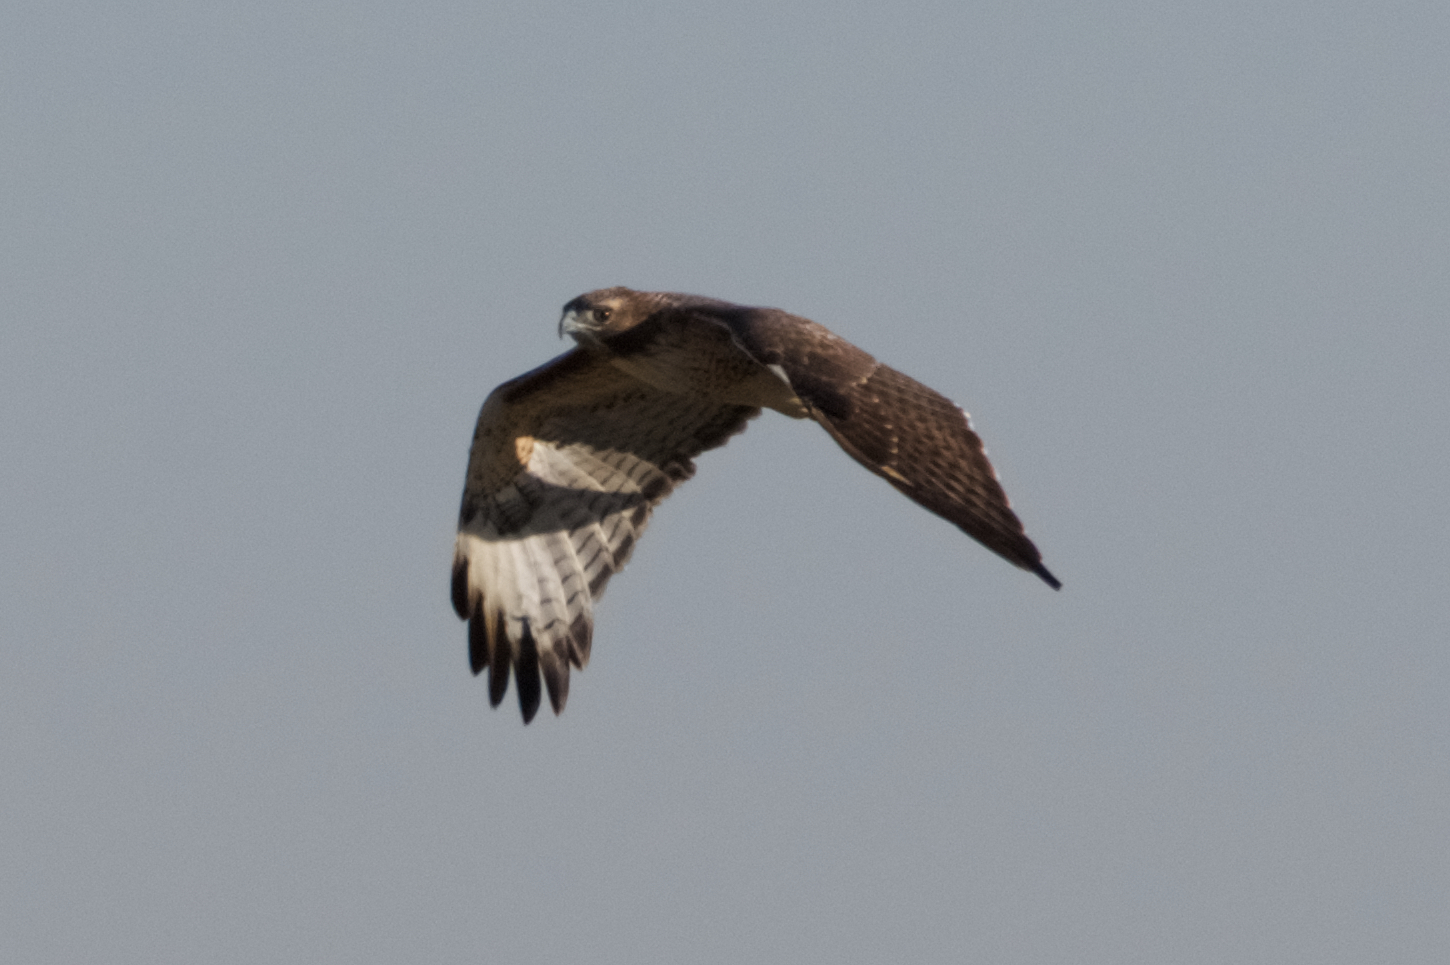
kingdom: Animalia
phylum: Chordata
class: Aves
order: Accipitriformes
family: Accipitridae
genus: Buteo
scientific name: Buteo jamaicensis
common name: Red-tailed hawk
